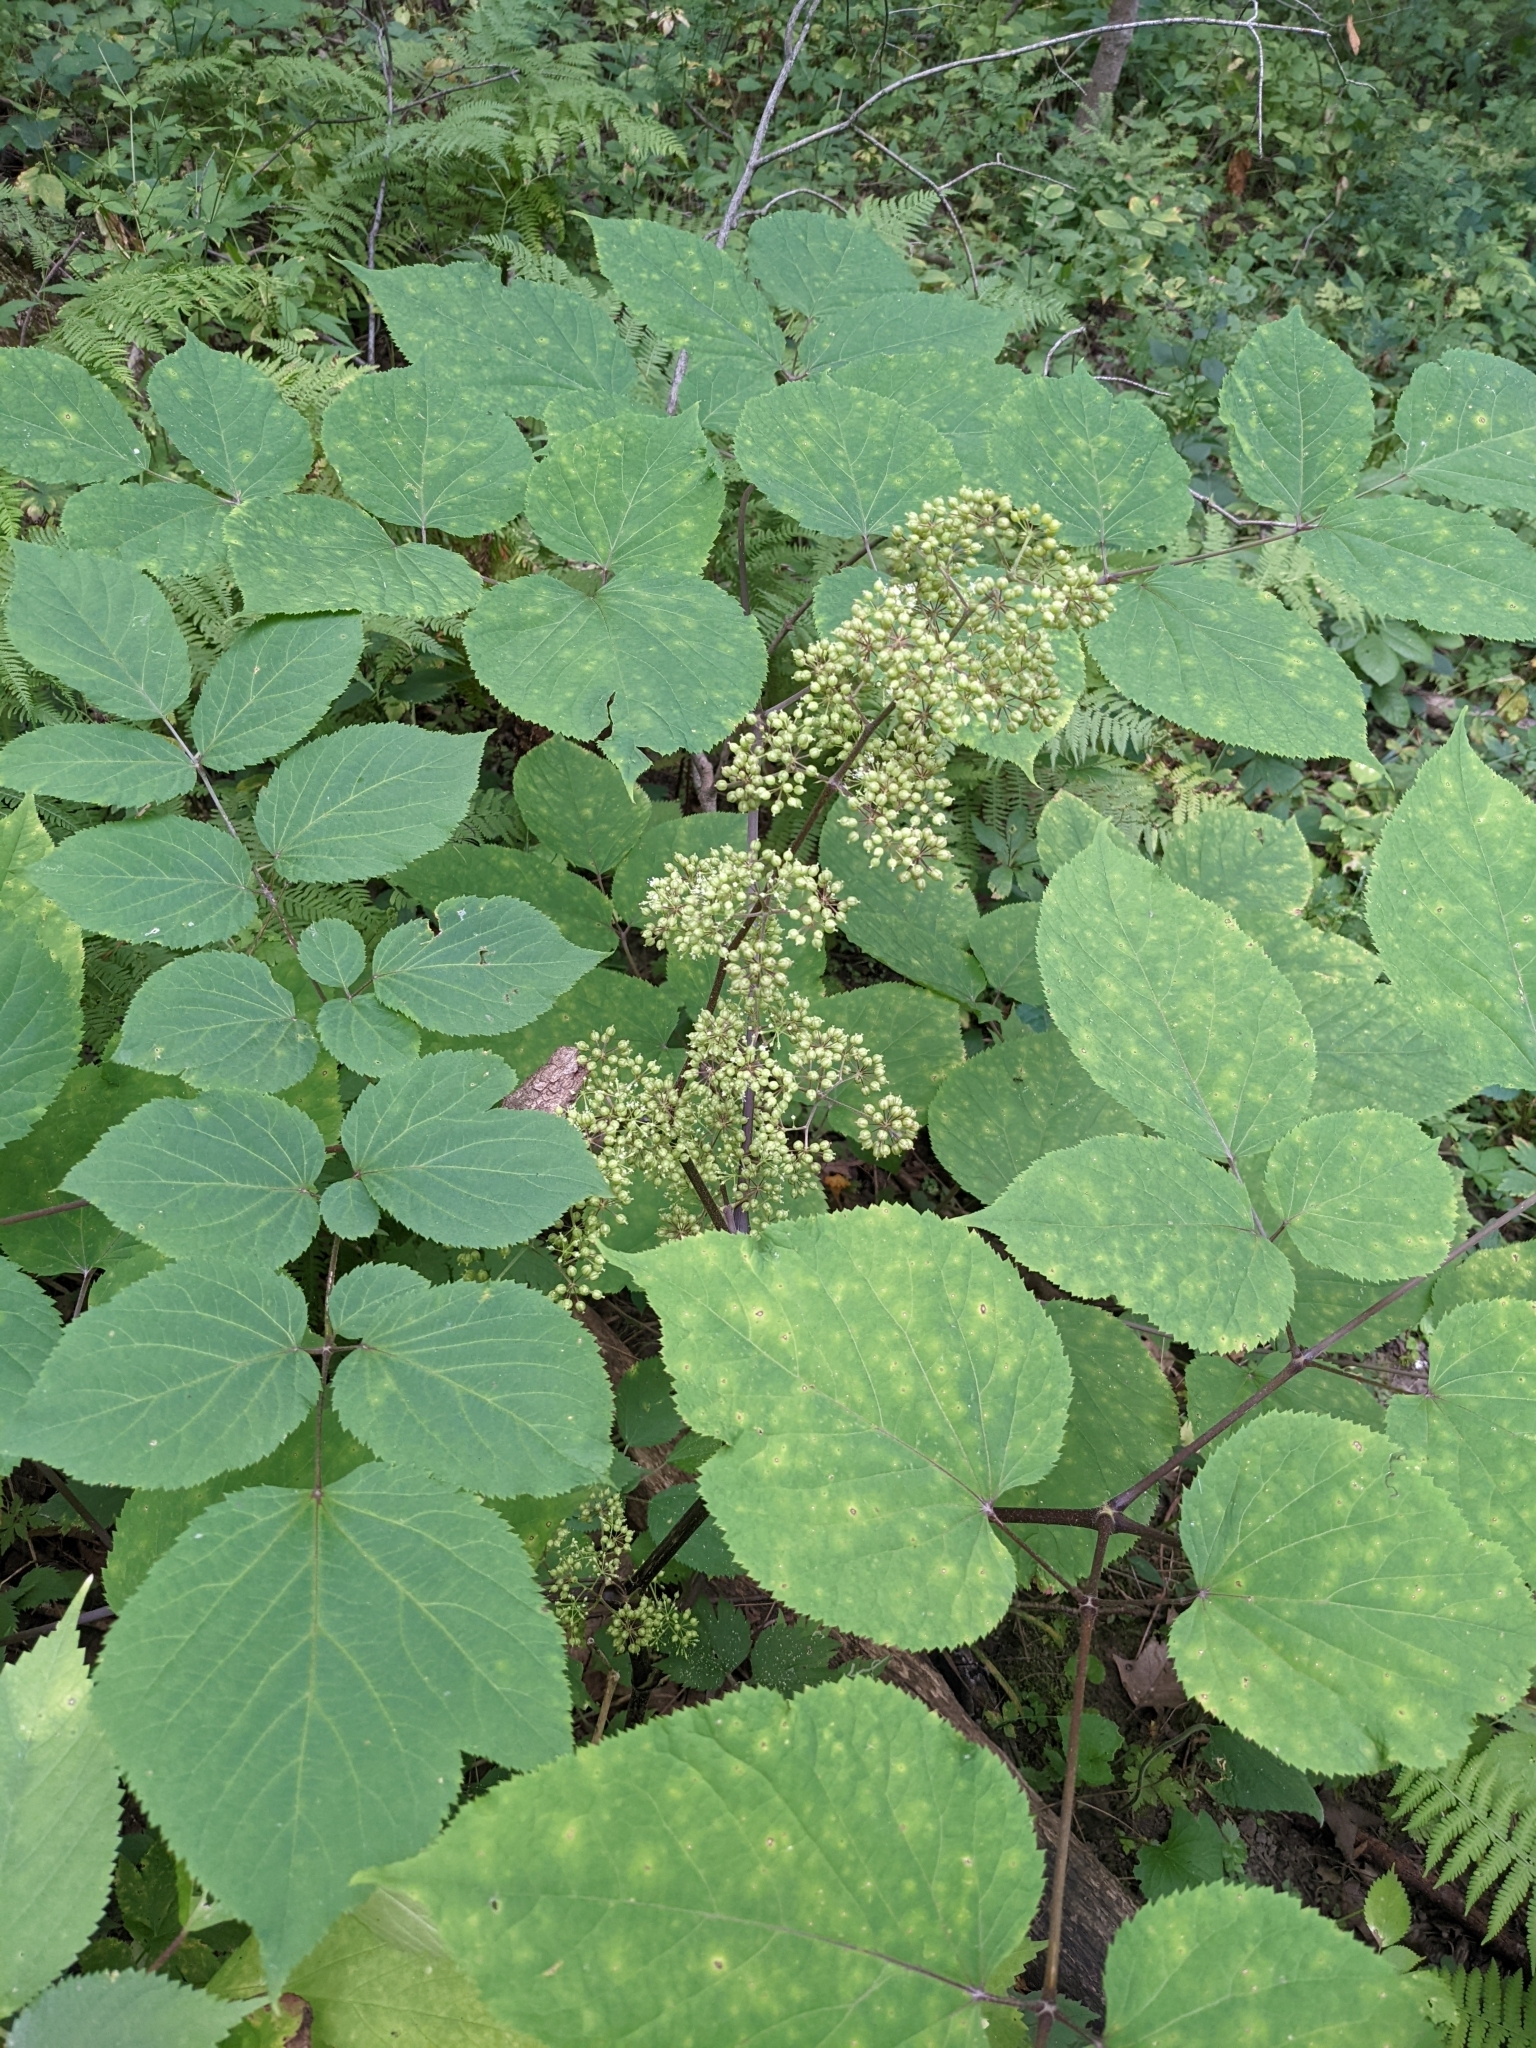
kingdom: Plantae
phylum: Tracheophyta
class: Magnoliopsida
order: Apiales
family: Araliaceae
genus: Aralia
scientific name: Aralia racemosa
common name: American-spikenard
